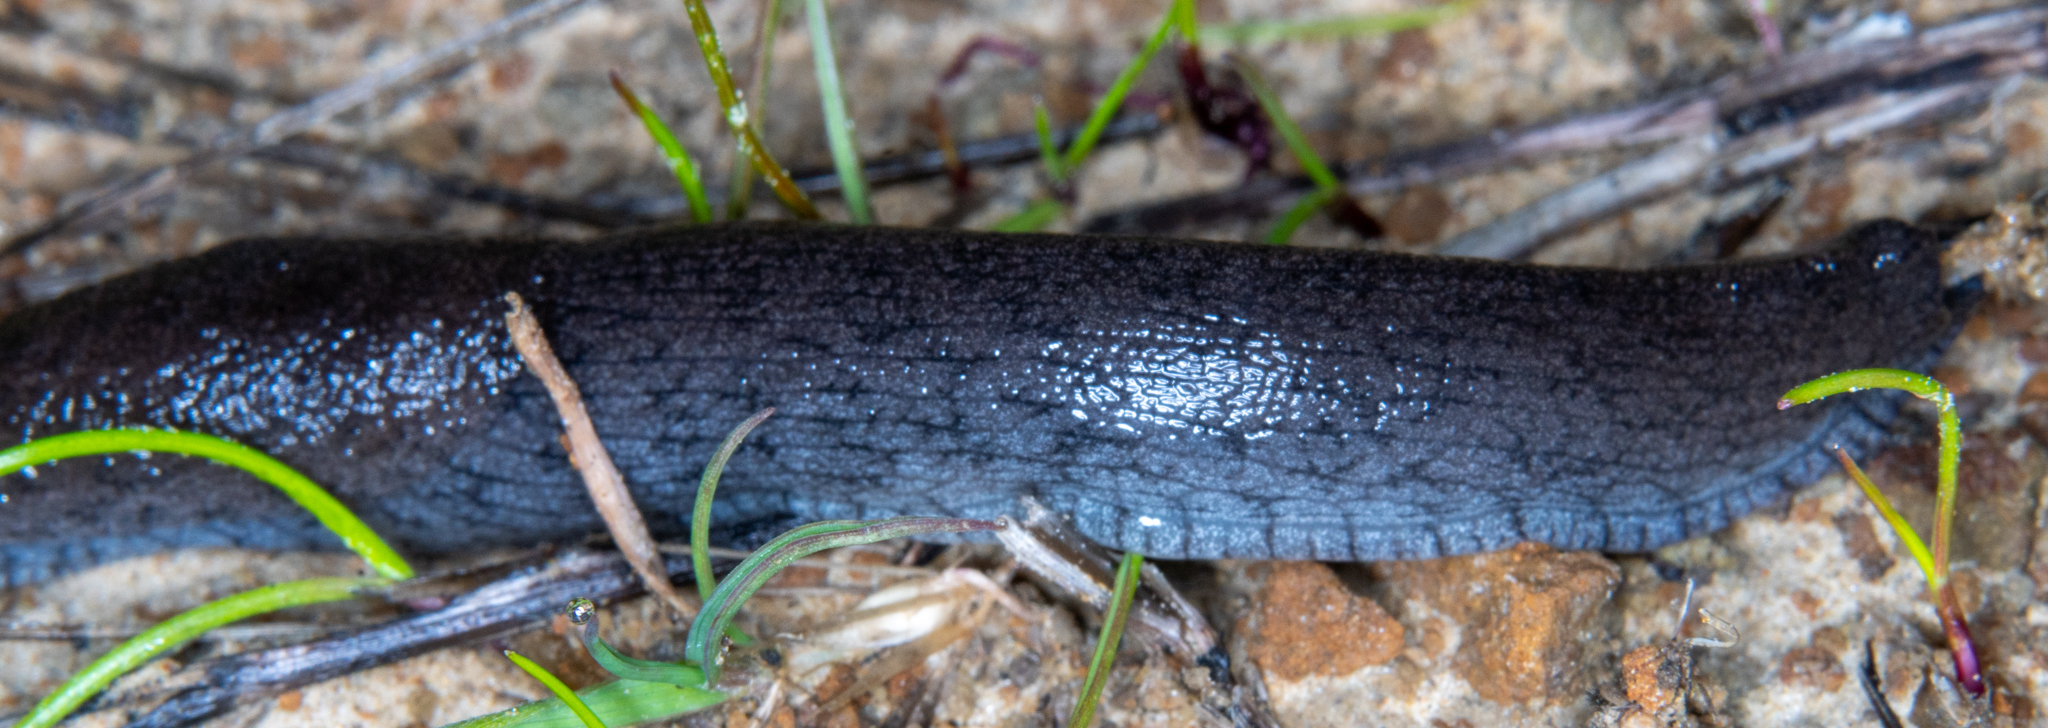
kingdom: Animalia
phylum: Mollusca
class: Gastropoda
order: Stylommatophora
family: Ariolimacidae
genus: Hesperarion
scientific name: Hesperarion niger
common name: Black western slug
